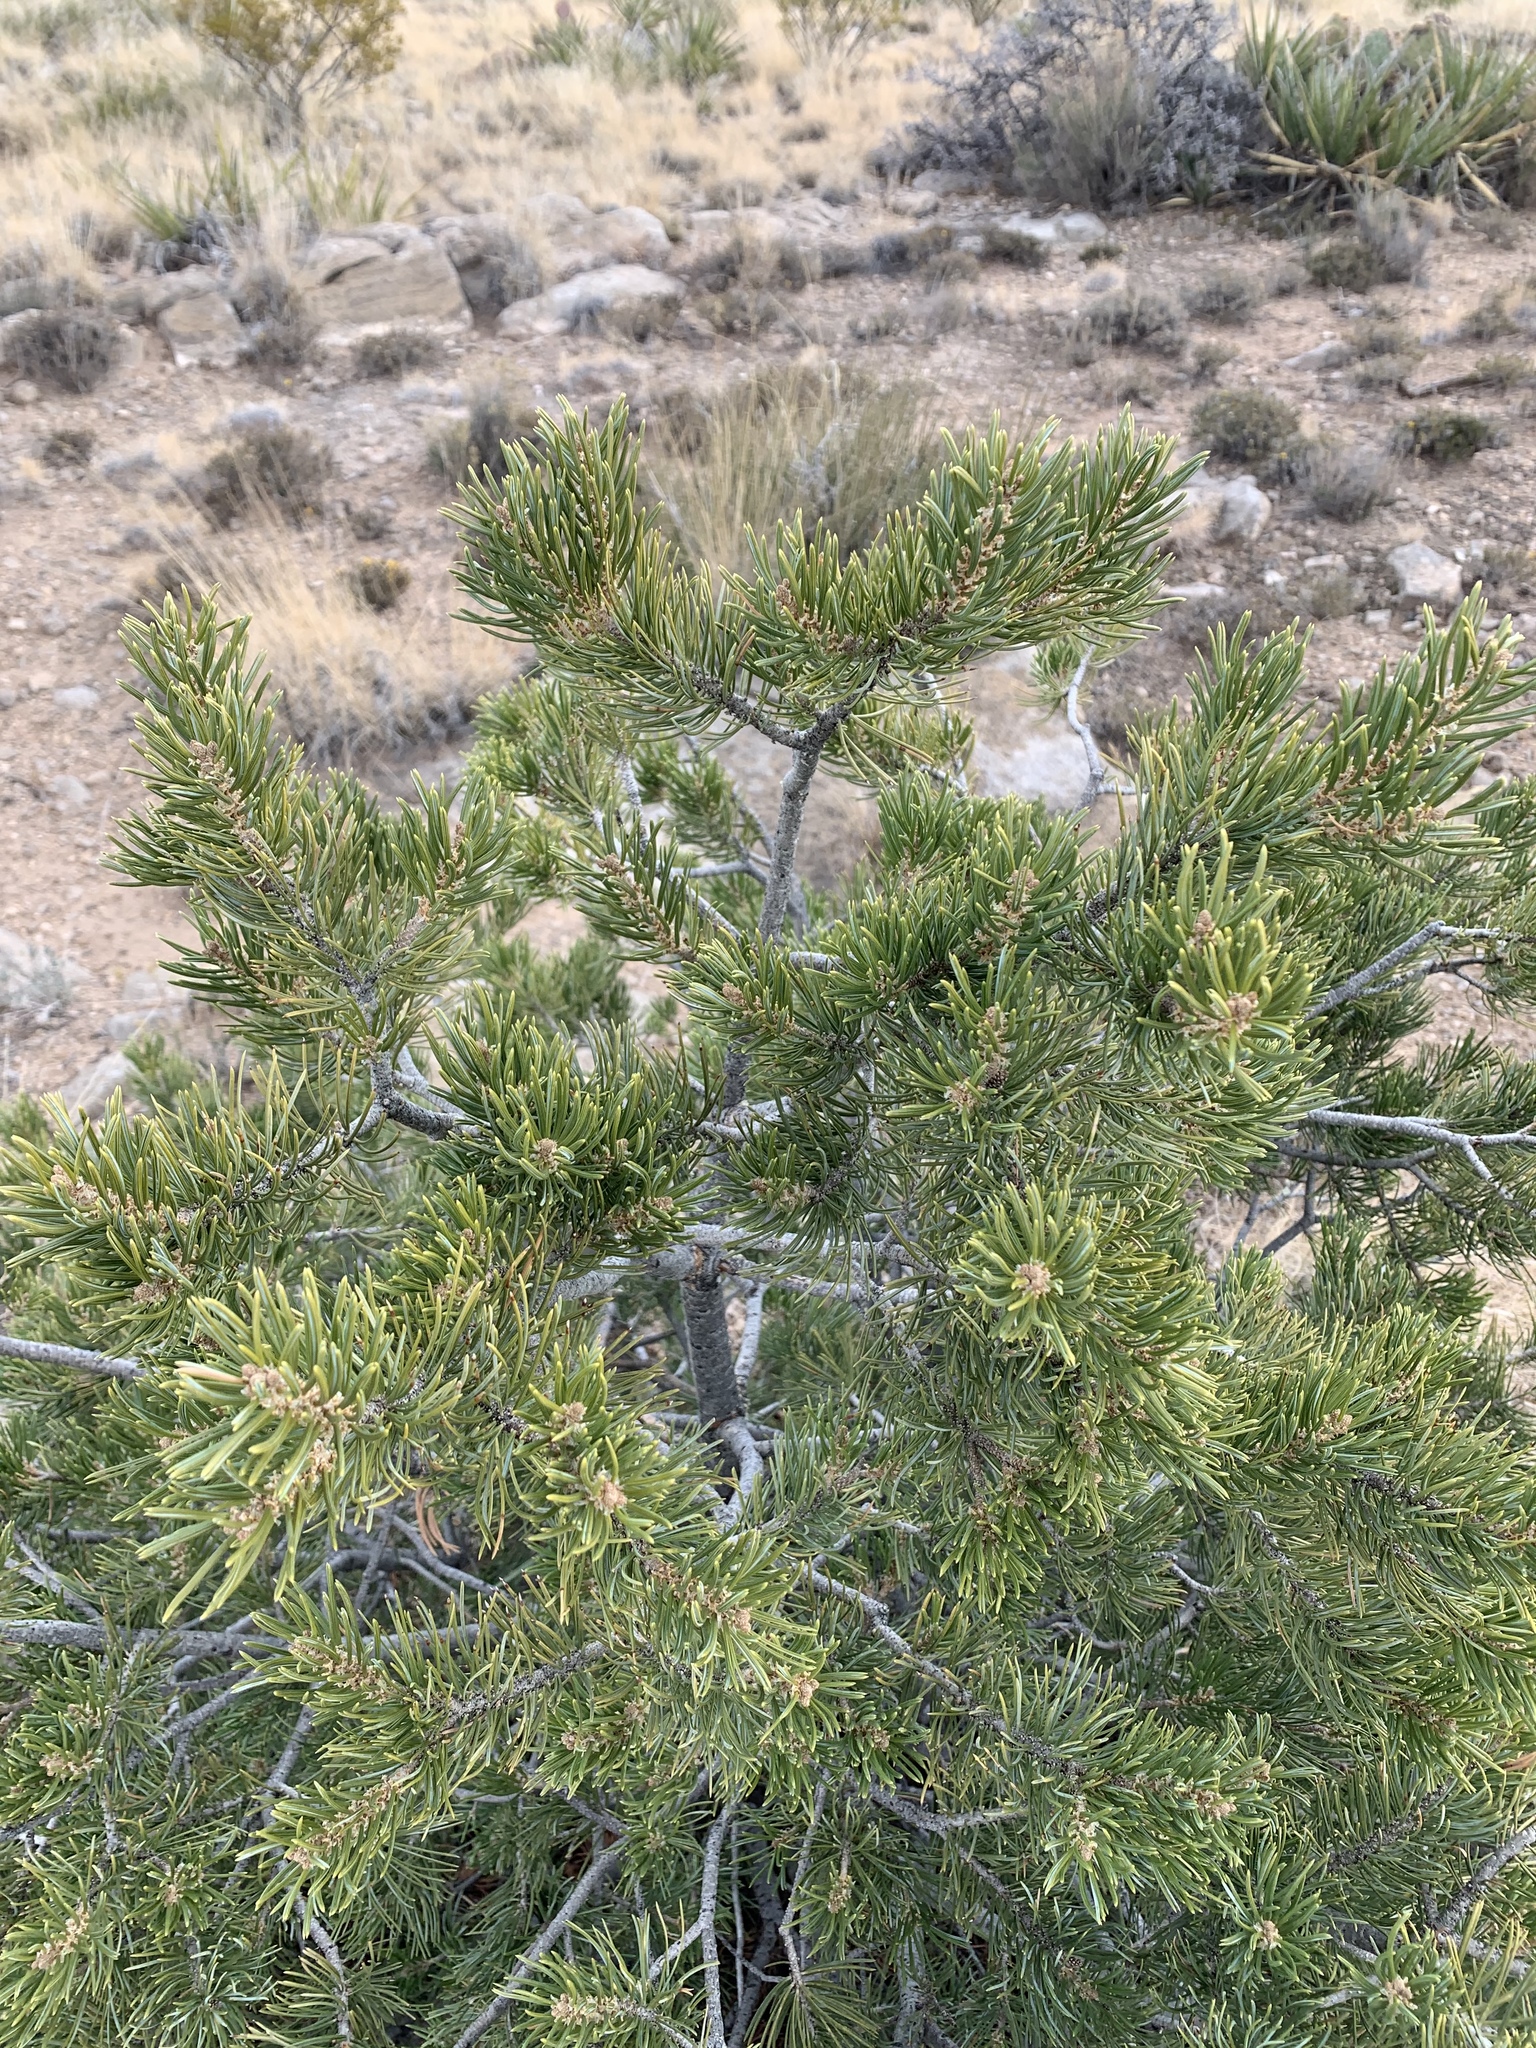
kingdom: Plantae
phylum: Tracheophyta
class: Pinopsida
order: Pinales
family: Pinaceae
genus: Pinus
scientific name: Pinus edulis
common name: Colorado pinyon
